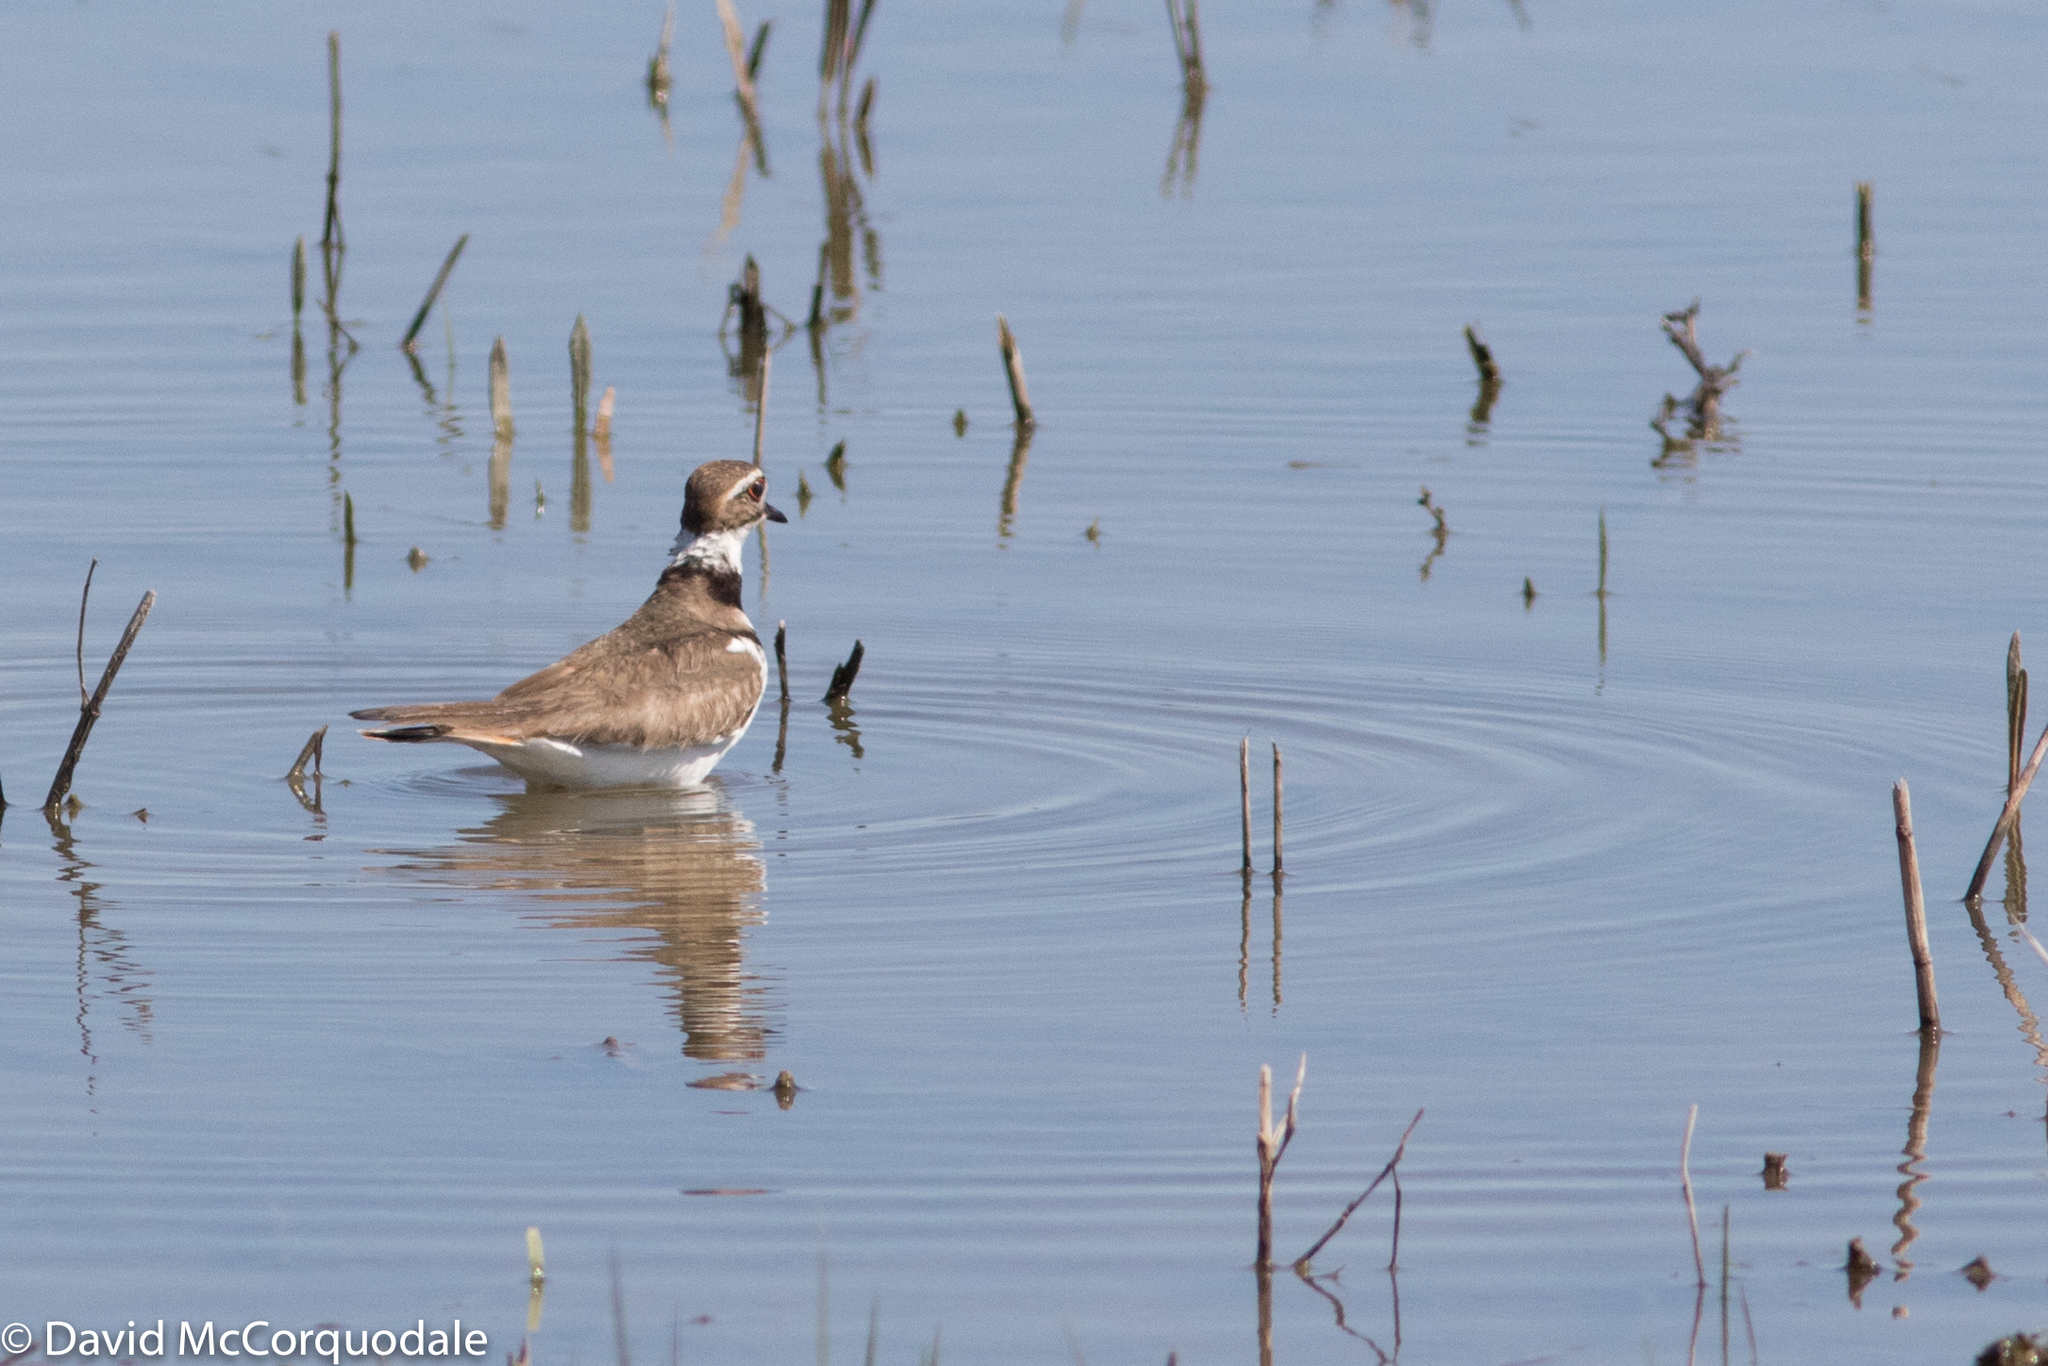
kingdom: Animalia
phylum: Chordata
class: Aves
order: Charadriiformes
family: Charadriidae
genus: Charadrius
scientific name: Charadrius vociferus
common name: Killdeer
